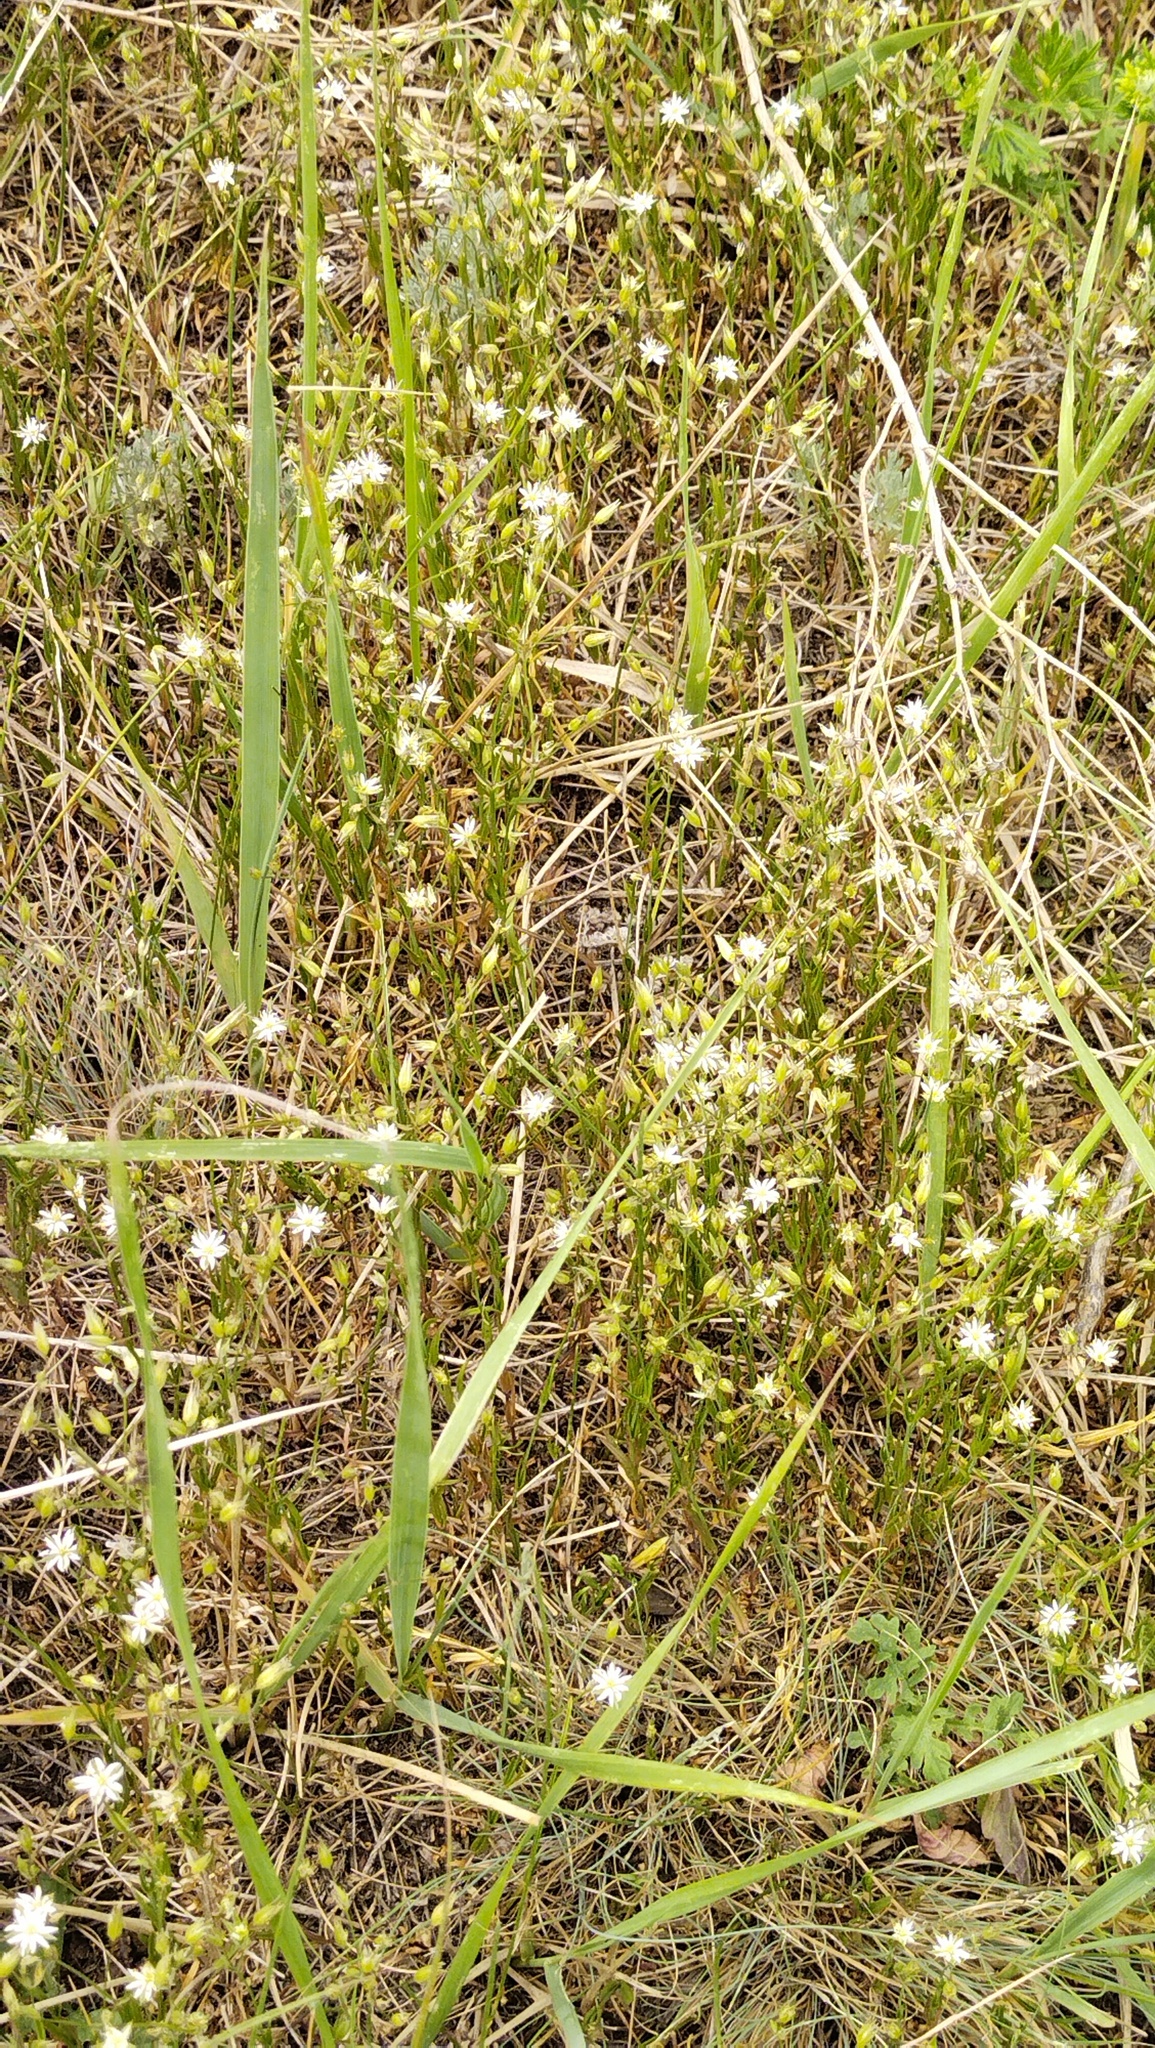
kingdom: Plantae
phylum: Tracheophyta
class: Magnoliopsida
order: Caryophyllales
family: Caryophyllaceae
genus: Stellaria
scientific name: Stellaria graminea
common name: Grass-like starwort
